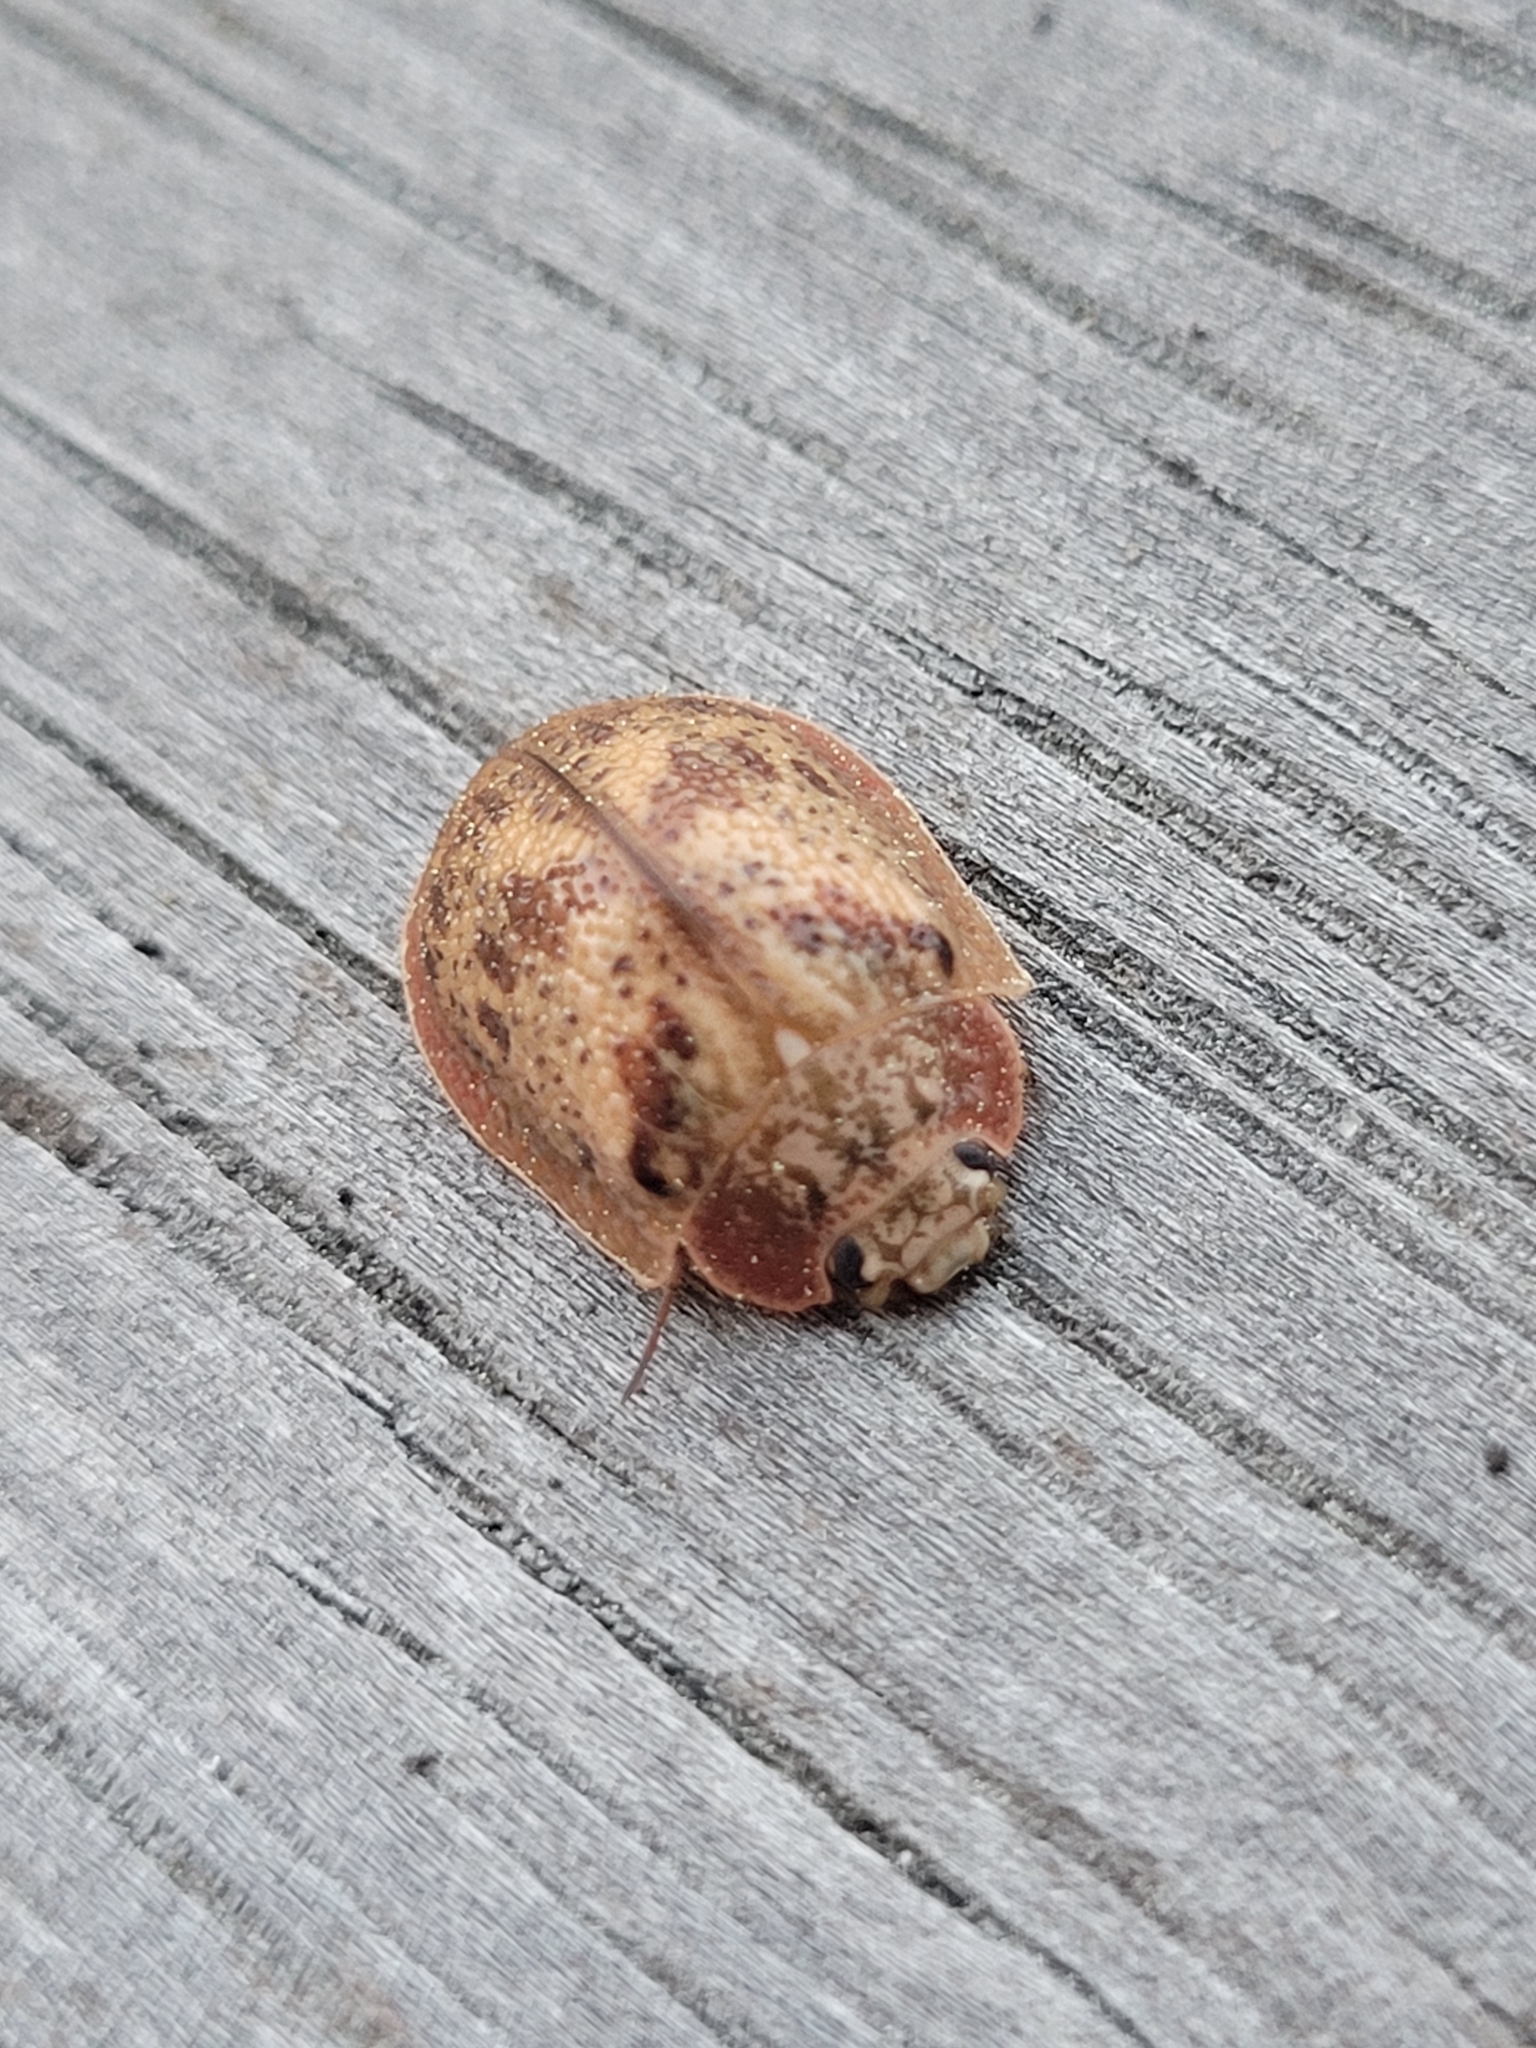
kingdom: Animalia
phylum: Arthropoda
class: Insecta
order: Coleoptera
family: Chrysomelidae
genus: Paropsis
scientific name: Paropsis charybdis
